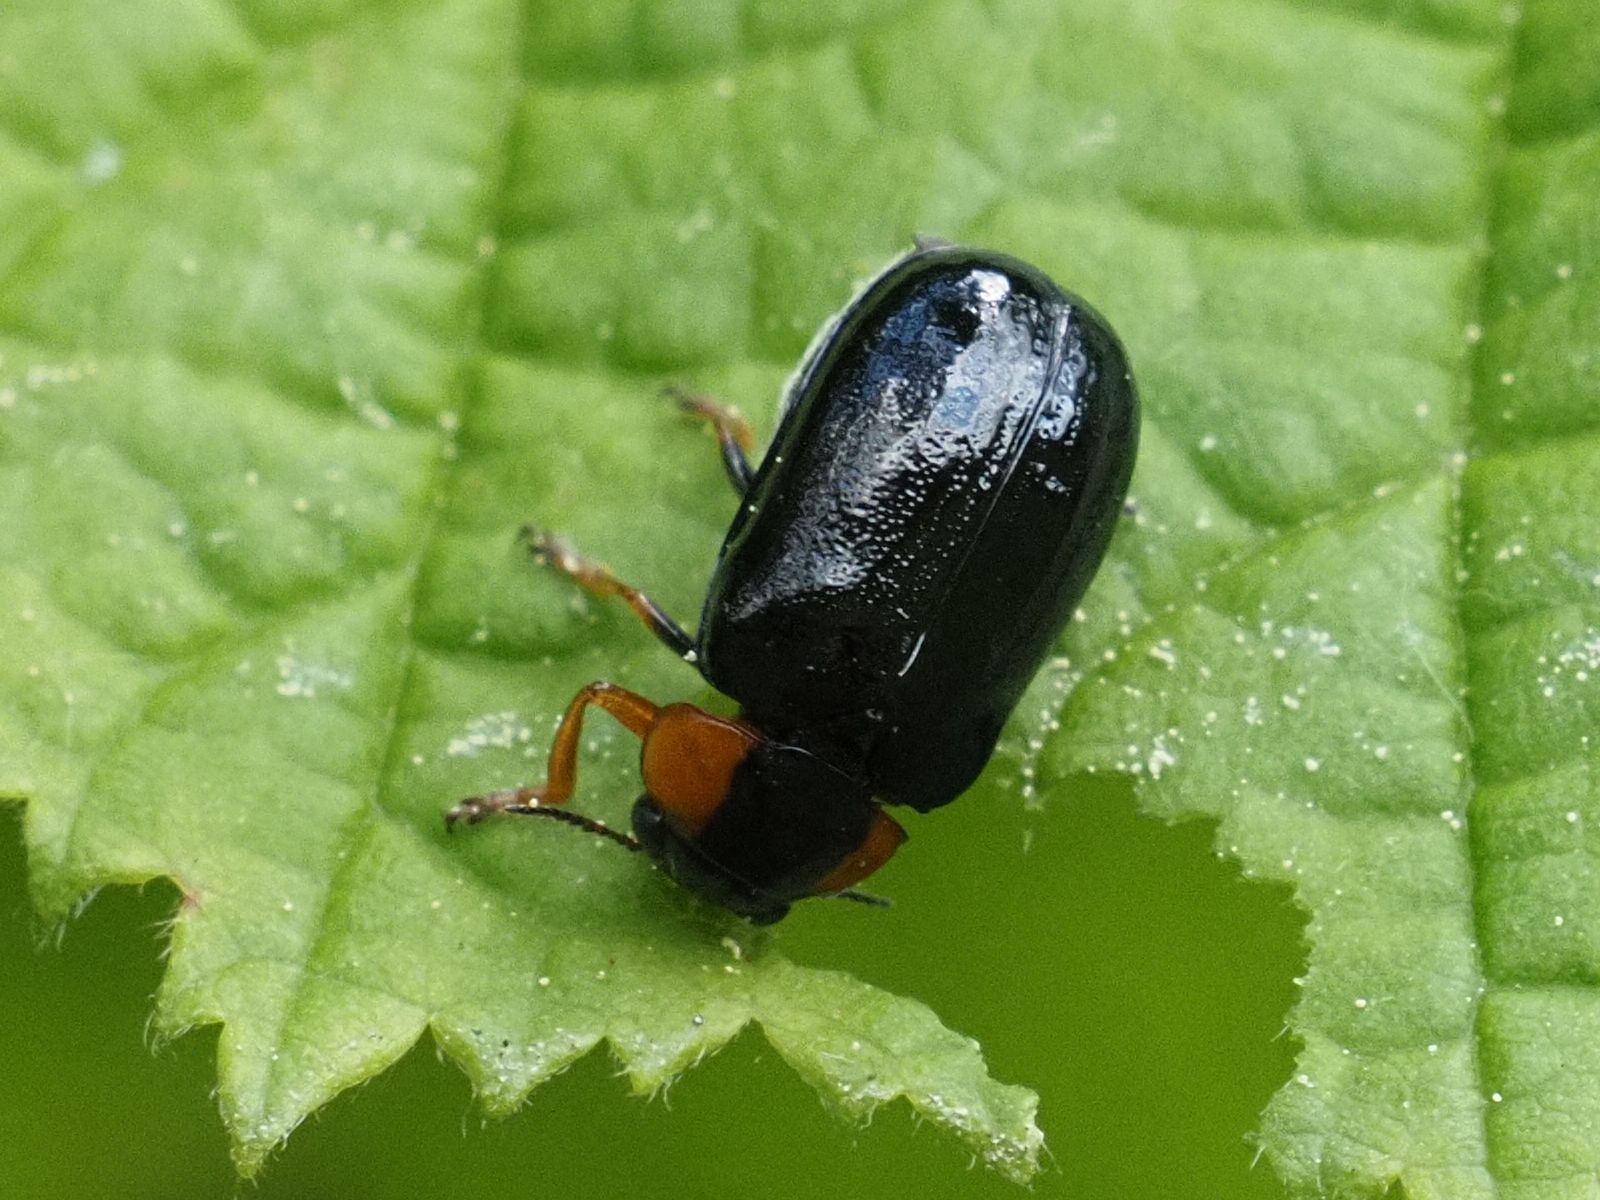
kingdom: Animalia
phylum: Arthropoda
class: Insecta
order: Coleoptera
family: Chrysomelidae
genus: Smaragdina
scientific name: Smaragdina aurita
